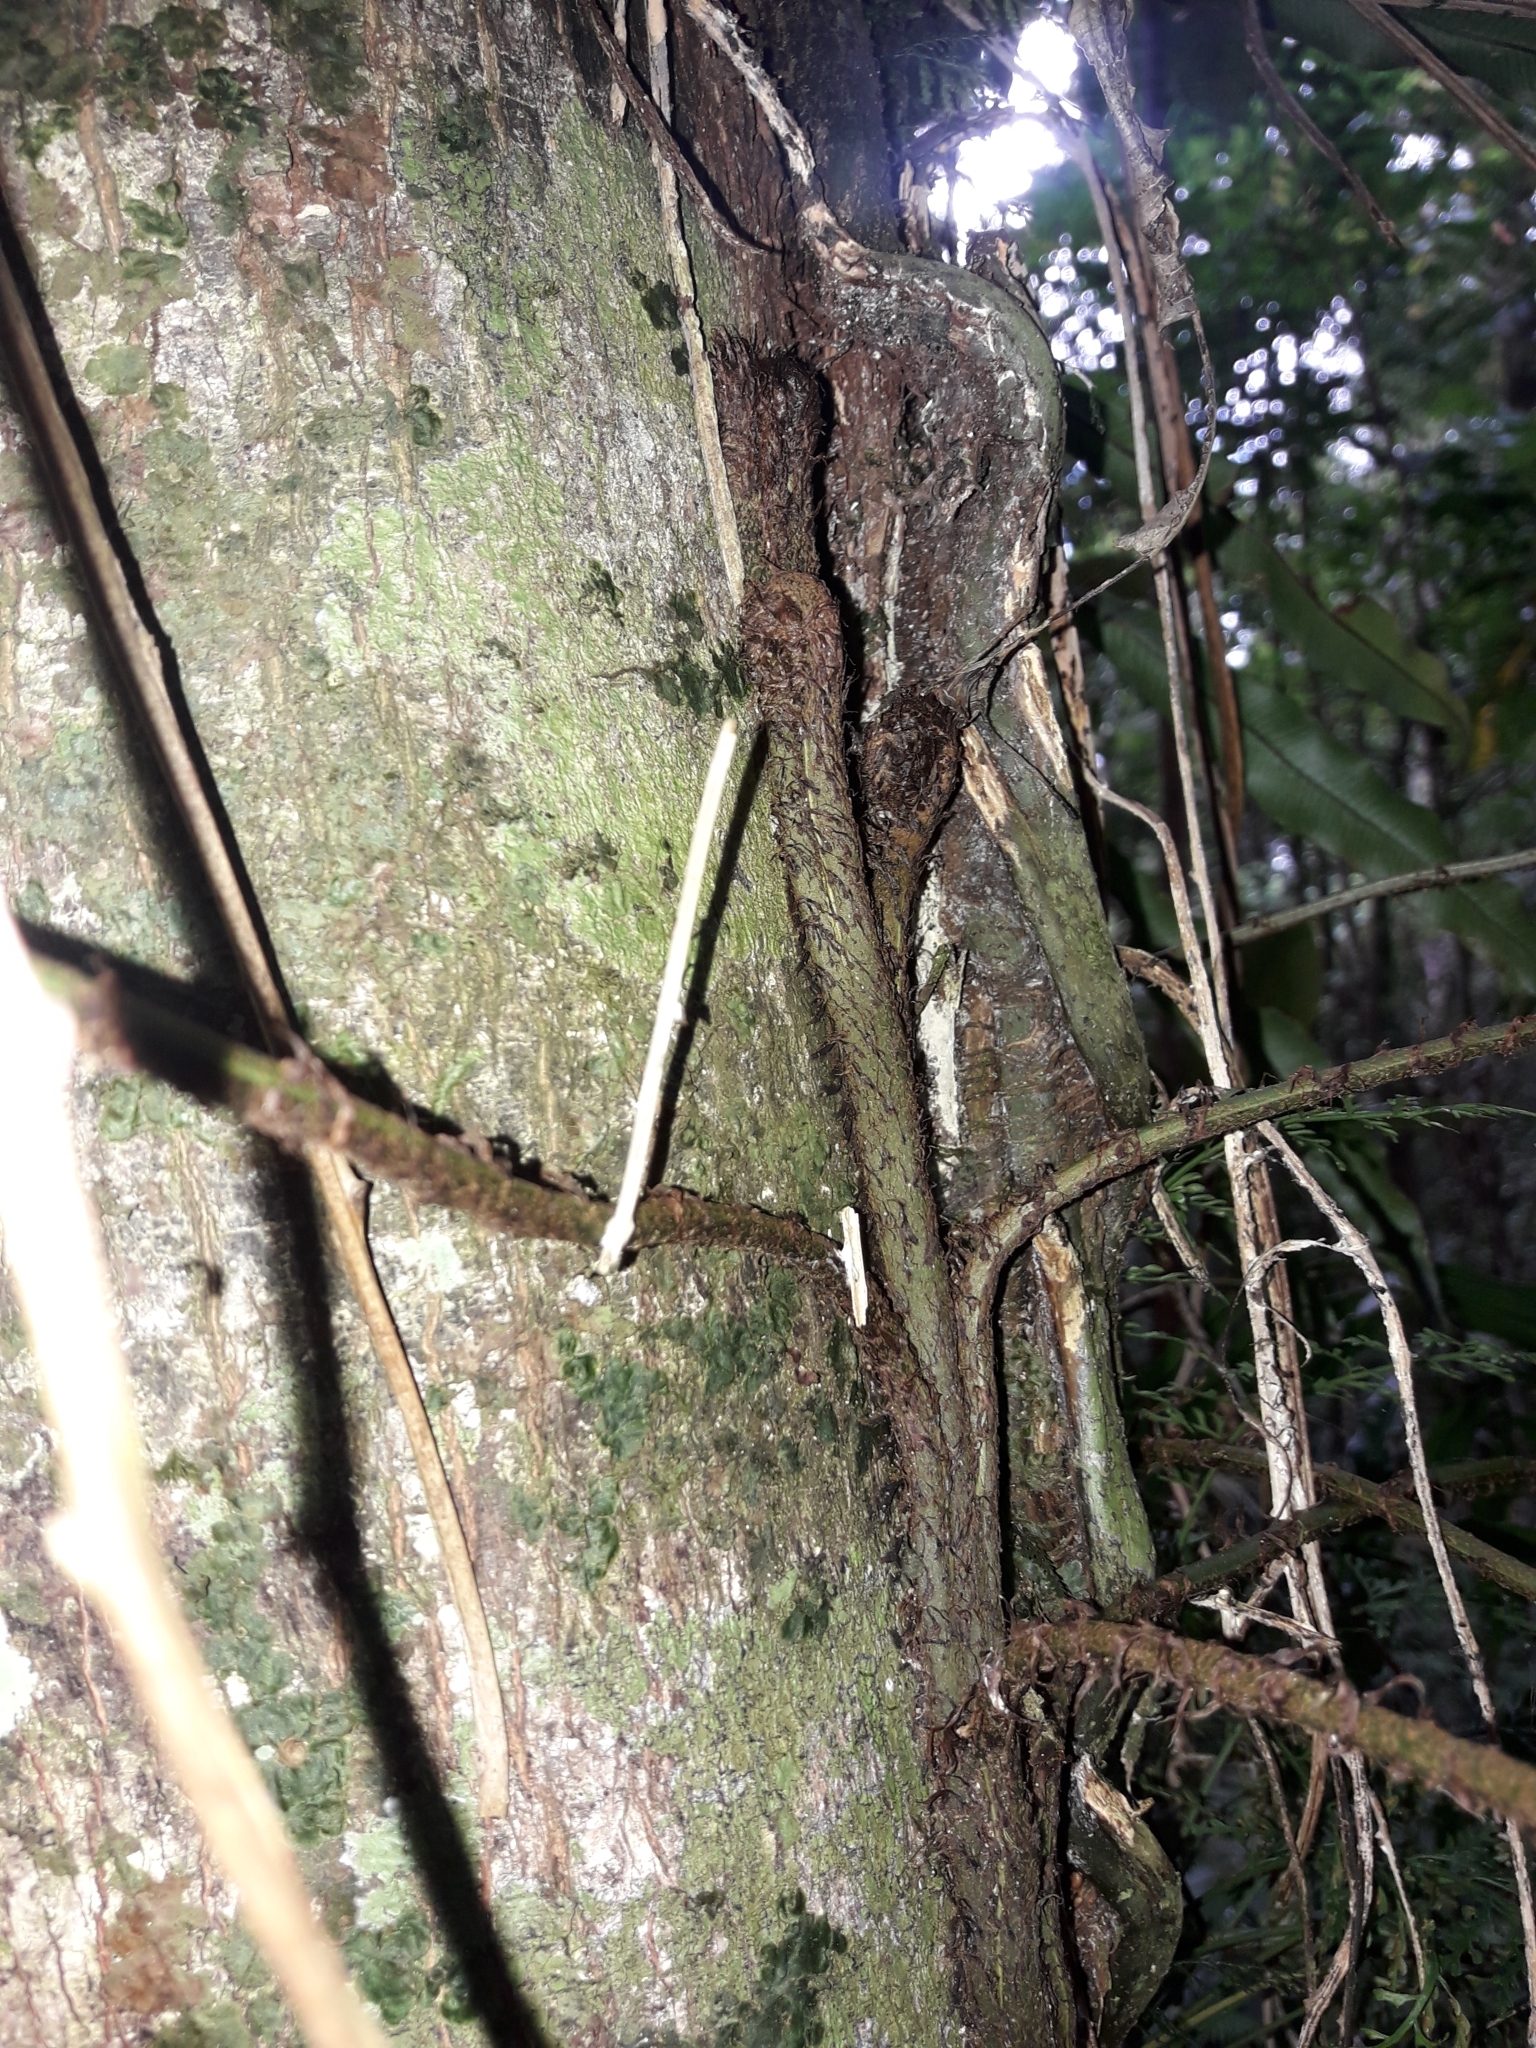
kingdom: Plantae
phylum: Tracheophyta
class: Polypodiopsida
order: Polypodiales
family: Lomariopsidaceae
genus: Lomariopsis
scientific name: Lomariopsis novae-caledoniae
